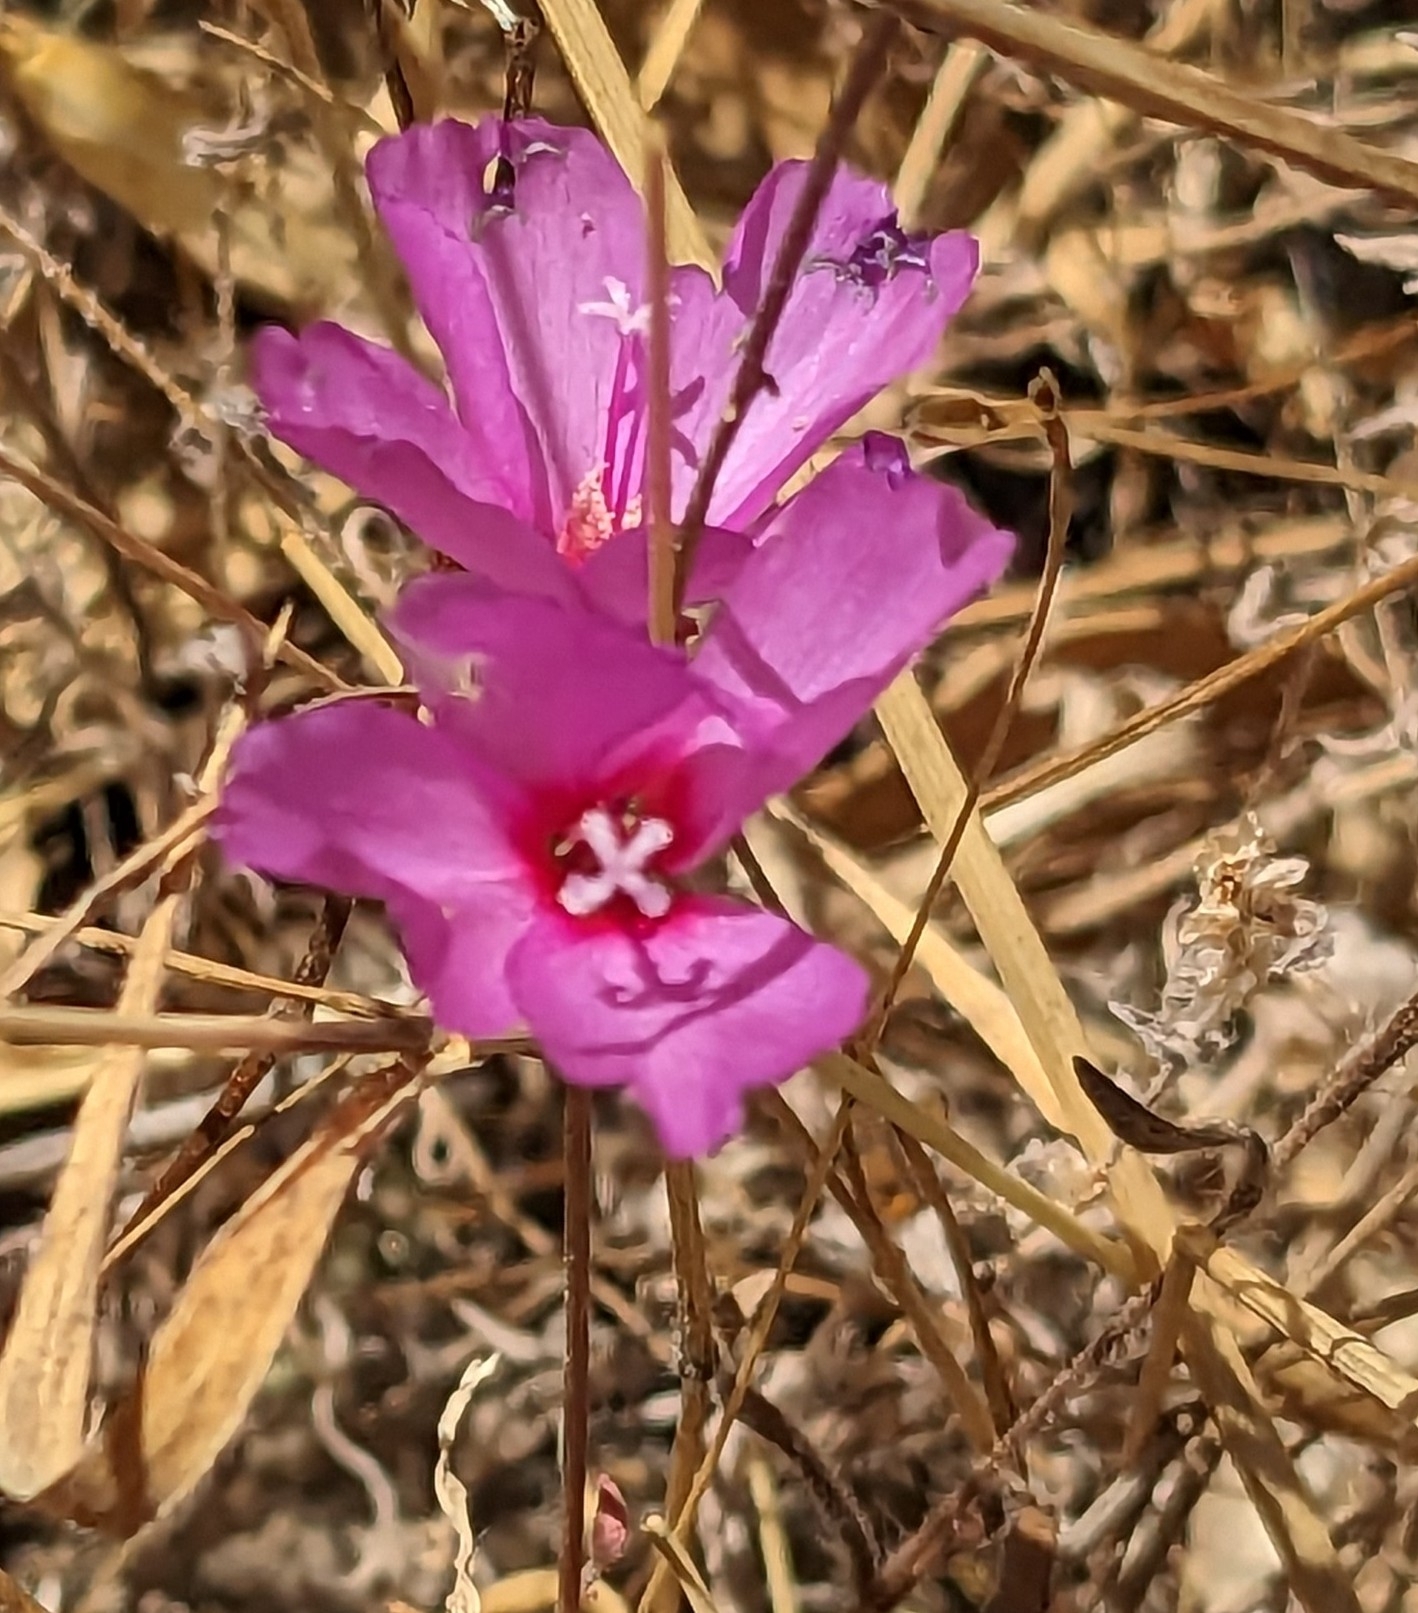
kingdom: Plantae
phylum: Tracheophyta
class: Magnoliopsida
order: Myrtales
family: Onagraceae
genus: Clarkia
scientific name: Clarkia rubicunda
